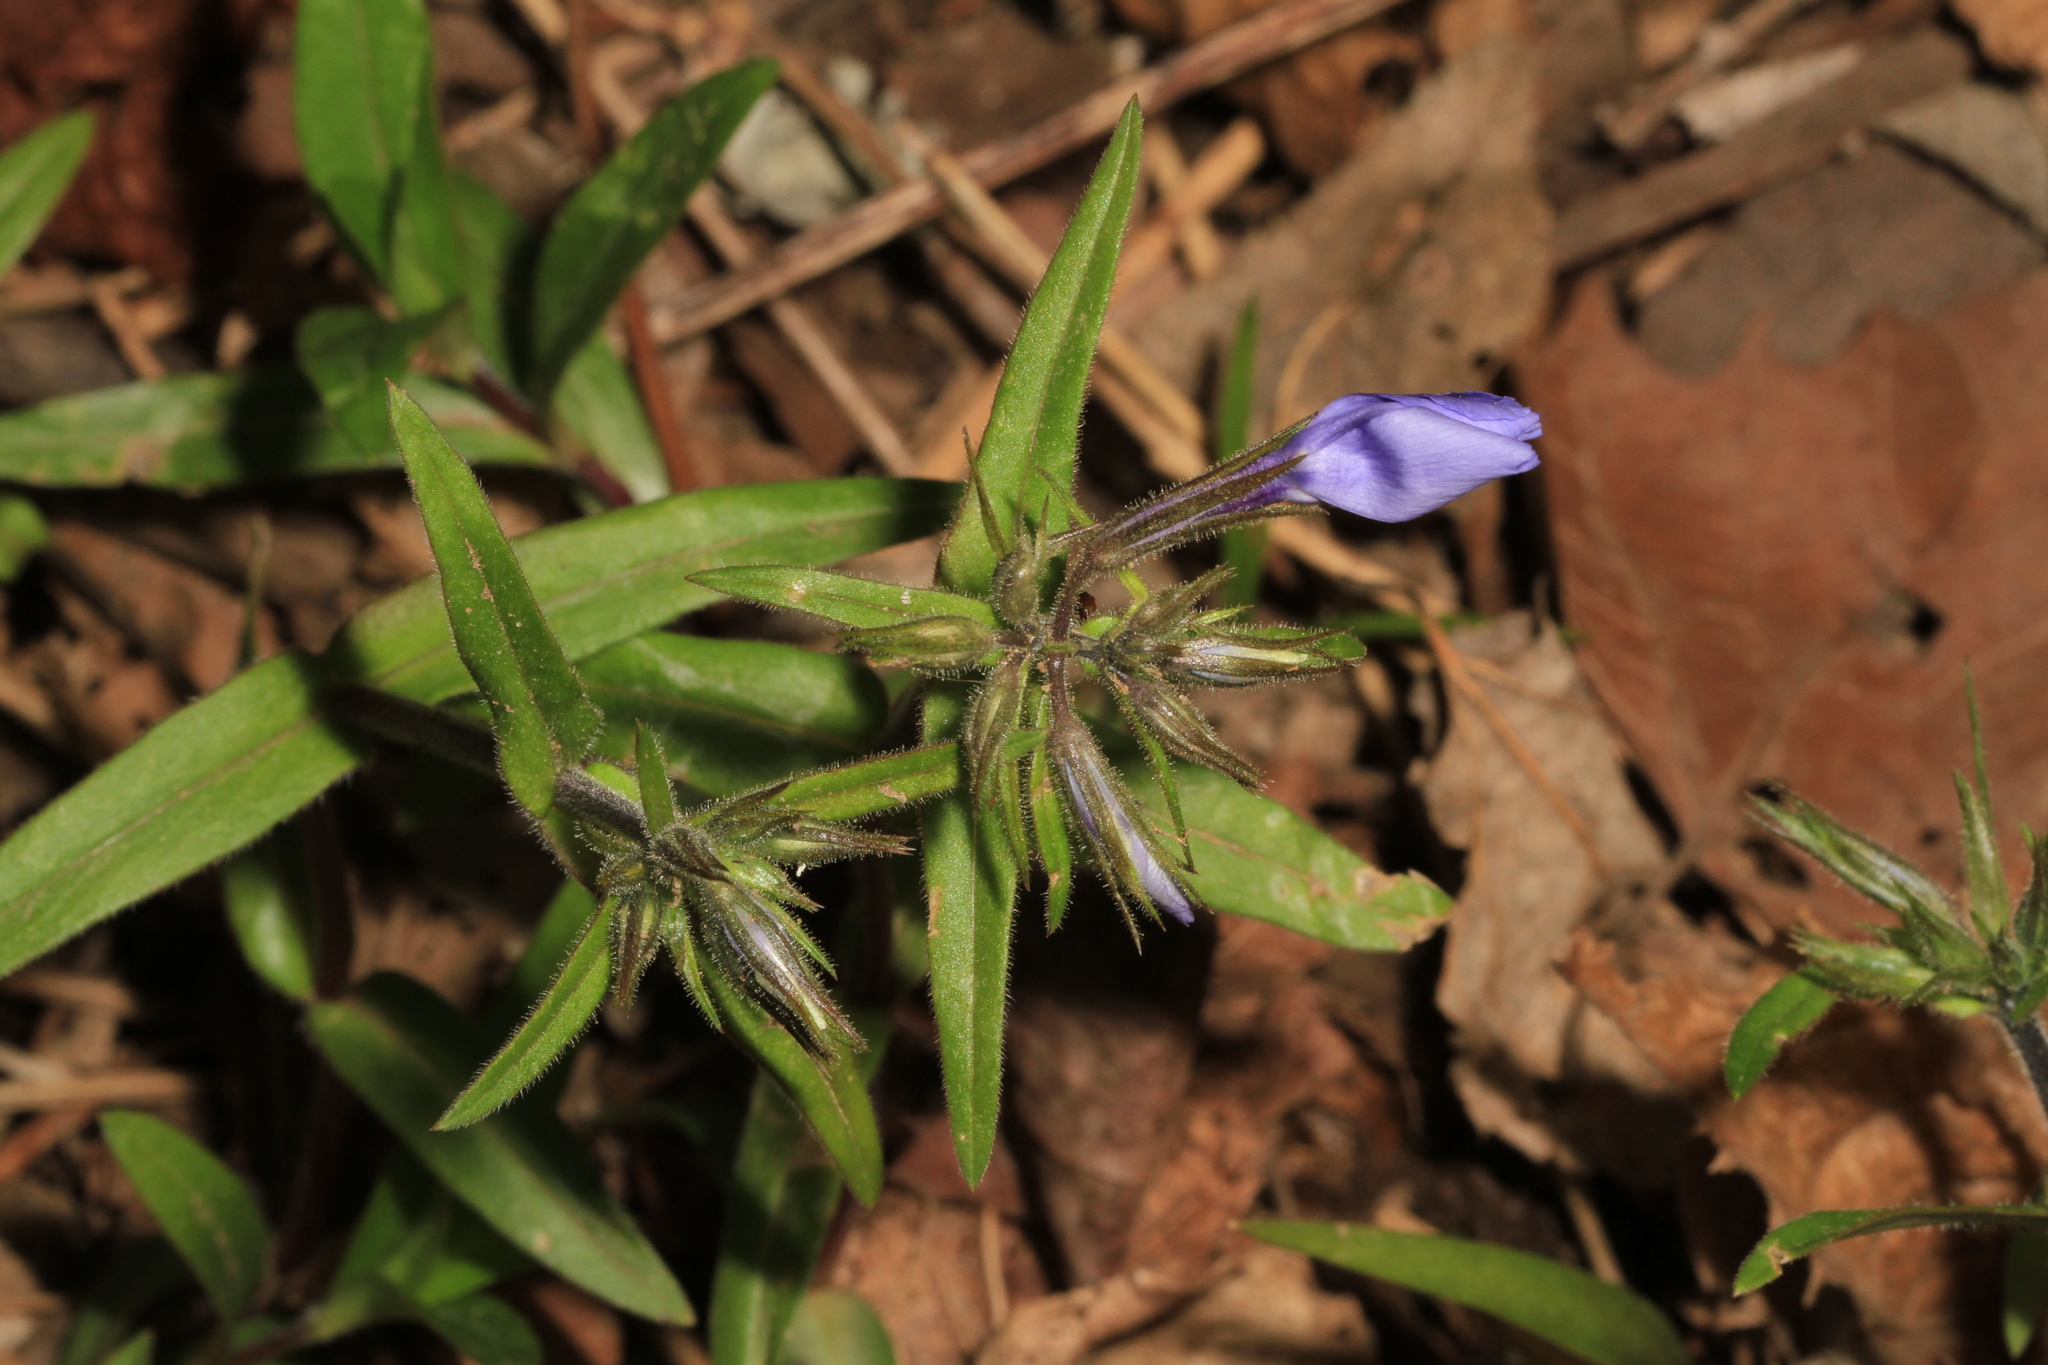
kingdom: Plantae
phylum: Tracheophyta
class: Magnoliopsida
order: Ericales
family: Polemoniaceae
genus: Phlox
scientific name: Phlox divaricata
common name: Blue phlox
